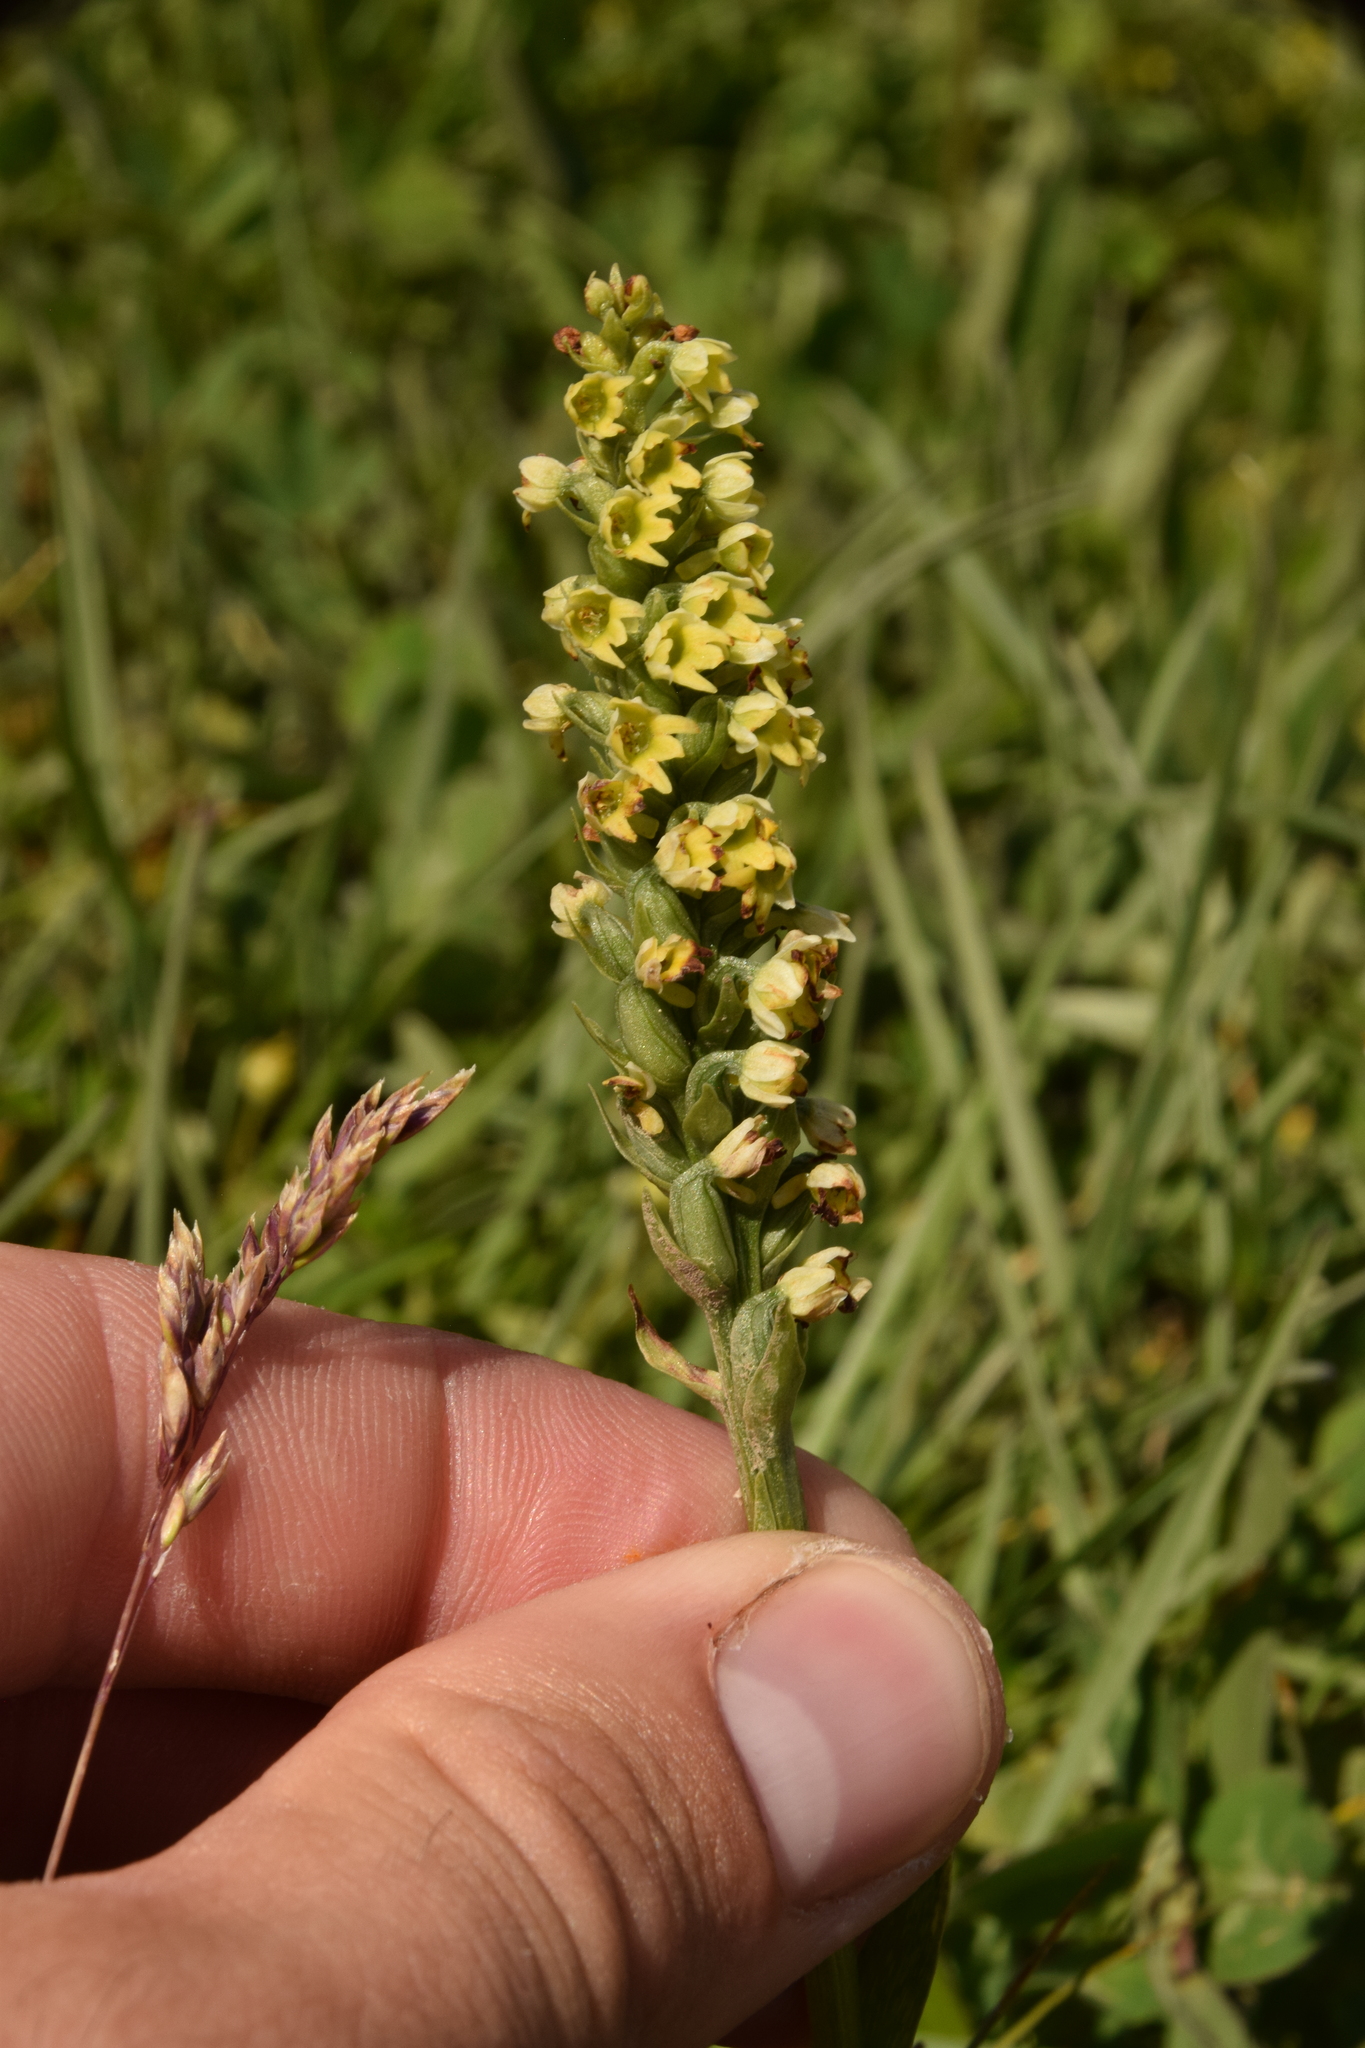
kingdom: Plantae
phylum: Tracheophyta
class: Liliopsida
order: Asparagales
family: Orchidaceae
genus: Pseudorchis
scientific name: Pseudorchis albida
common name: Small-white orchid
